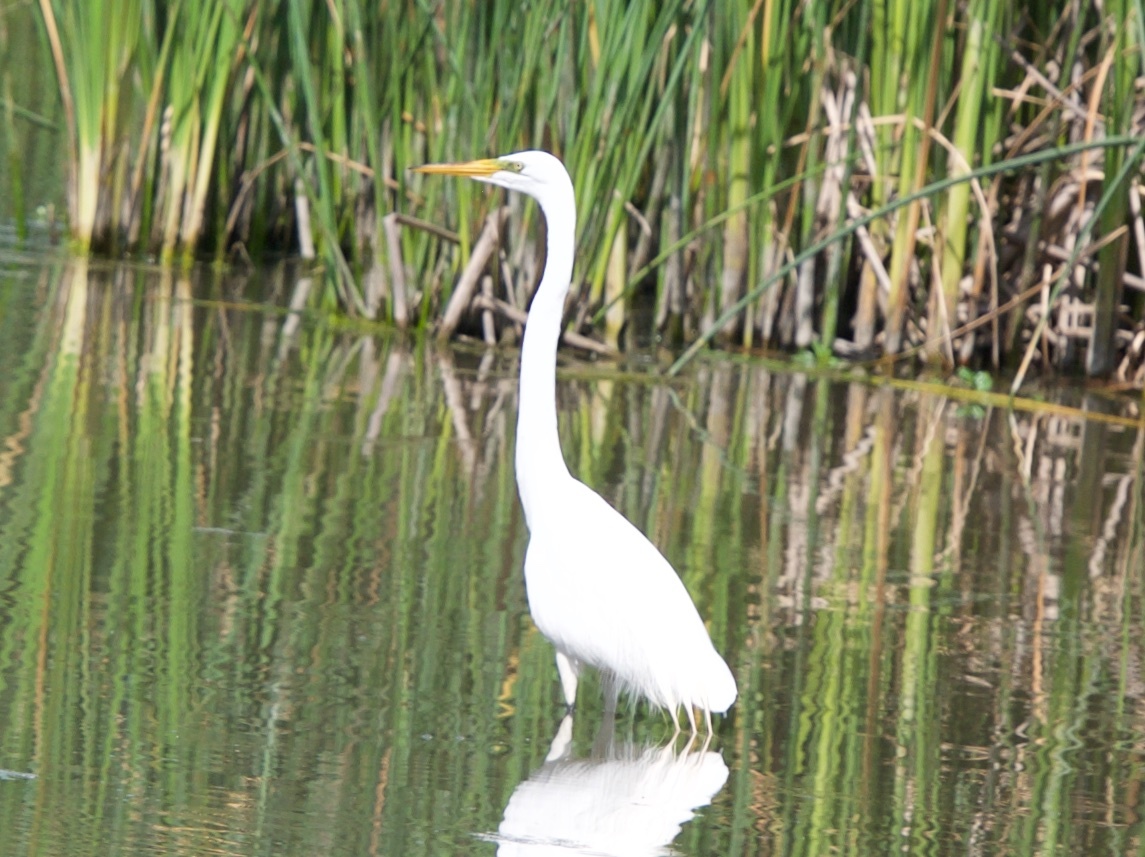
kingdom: Animalia
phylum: Chordata
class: Aves
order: Pelecaniformes
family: Ardeidae
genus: Ardea
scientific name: Ardea alba
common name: Great egret
